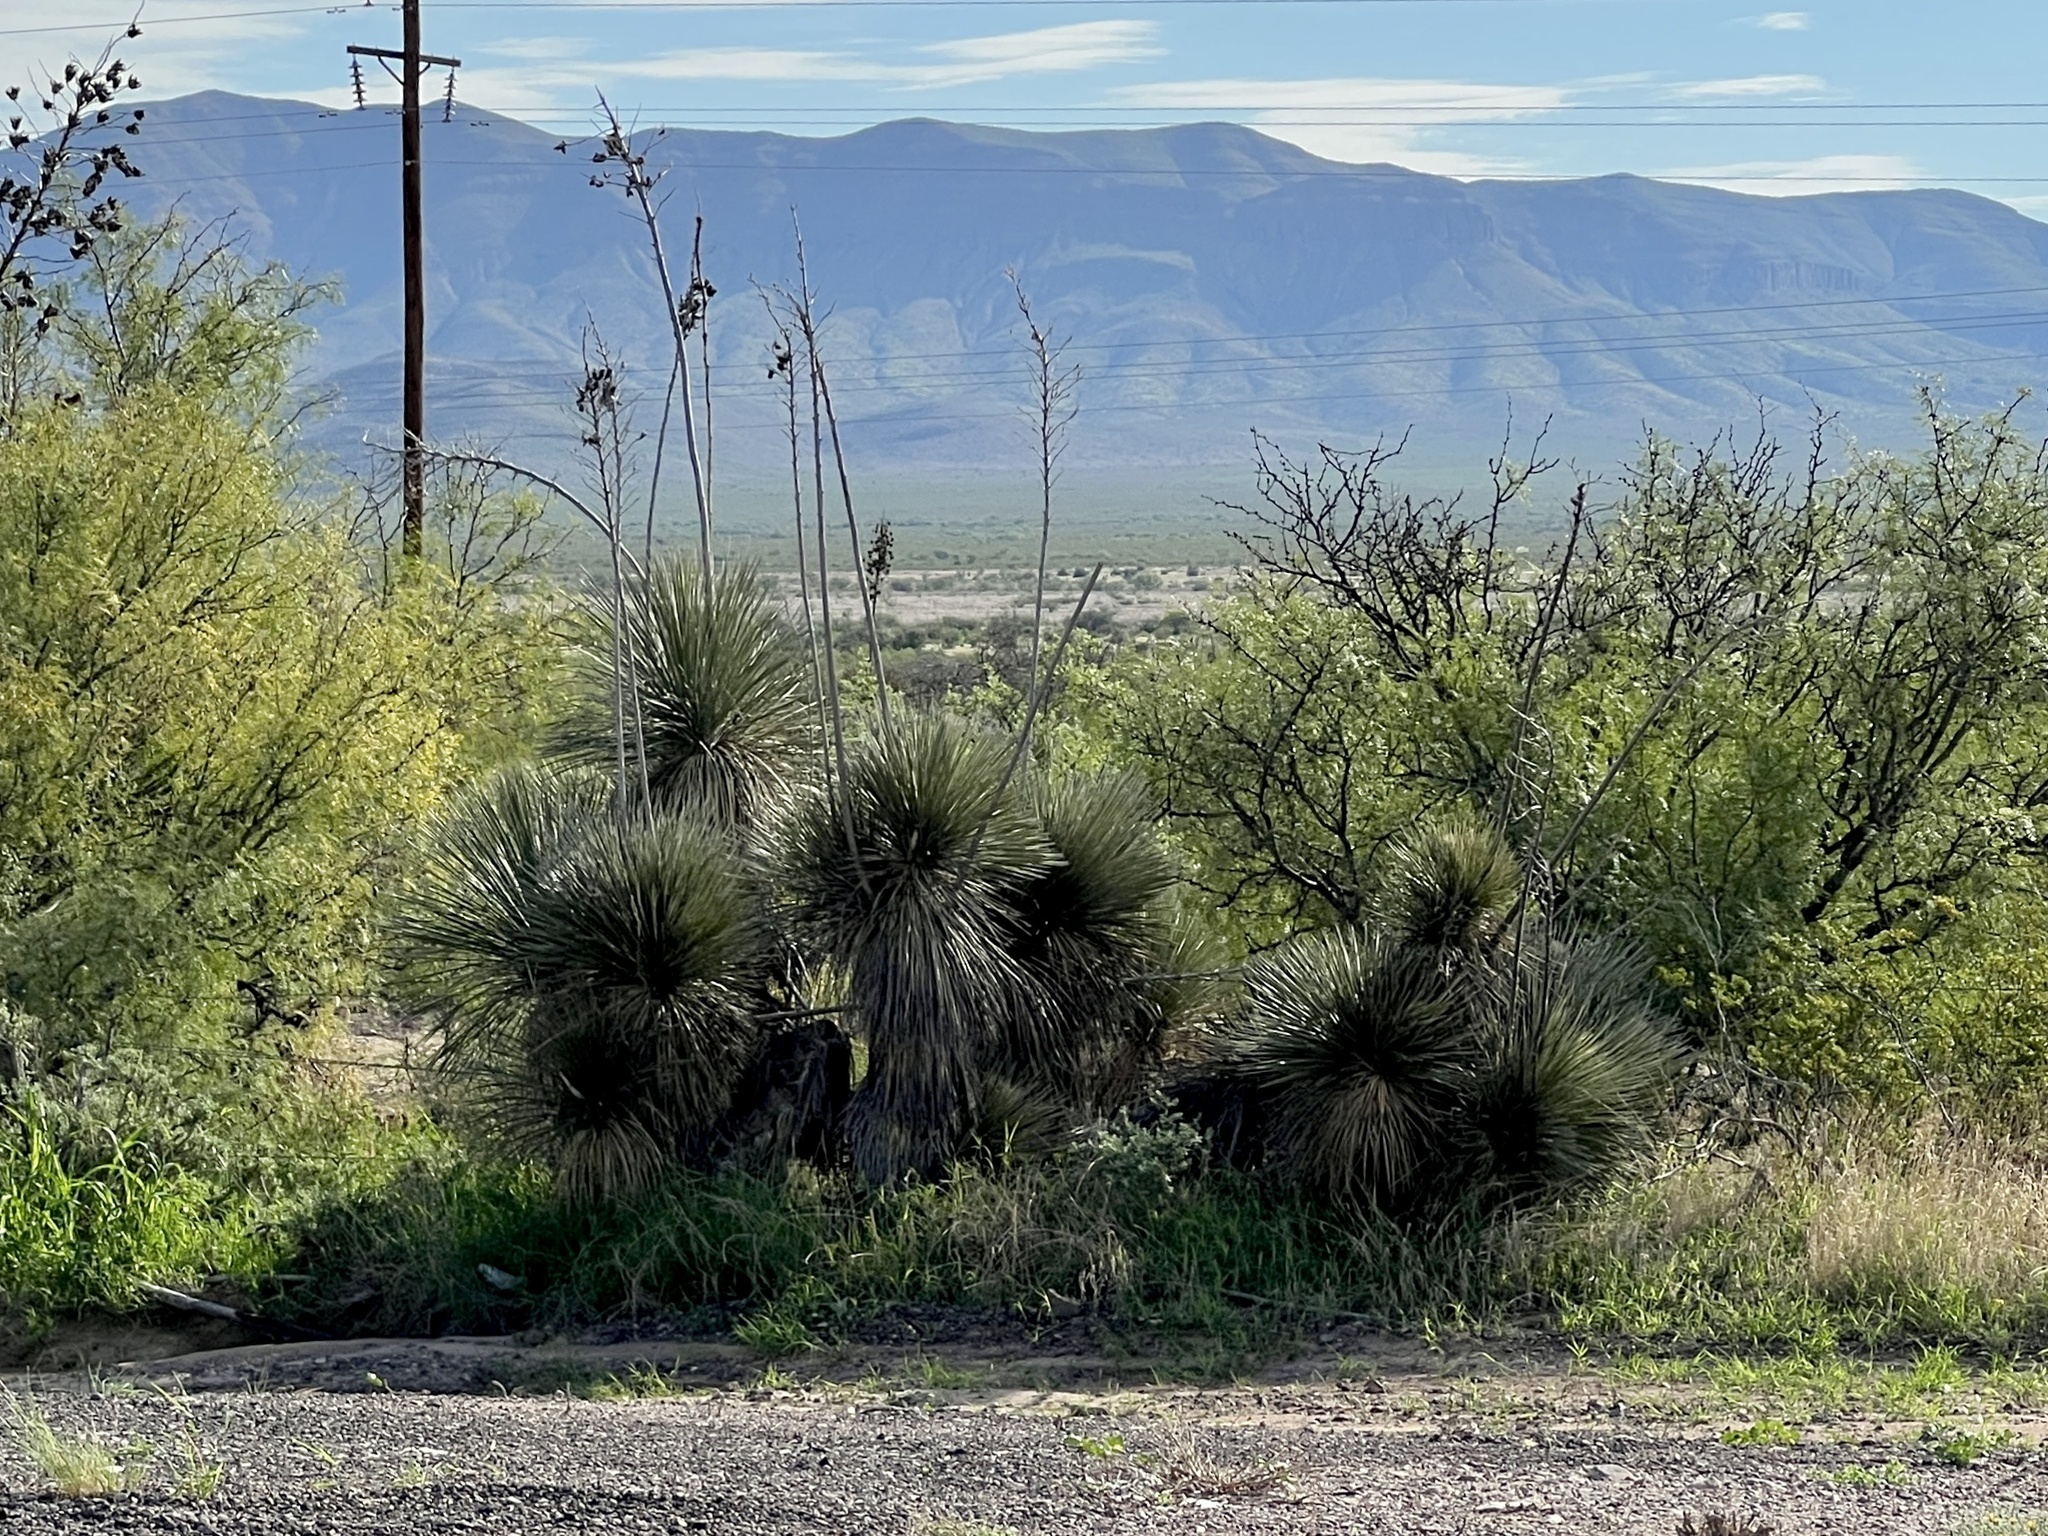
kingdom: Plantae
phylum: Tracheophyta
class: Liliopsida
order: Asparagales
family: Asparagaceae
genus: Yucca
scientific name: Yucca elata
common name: Palmella
